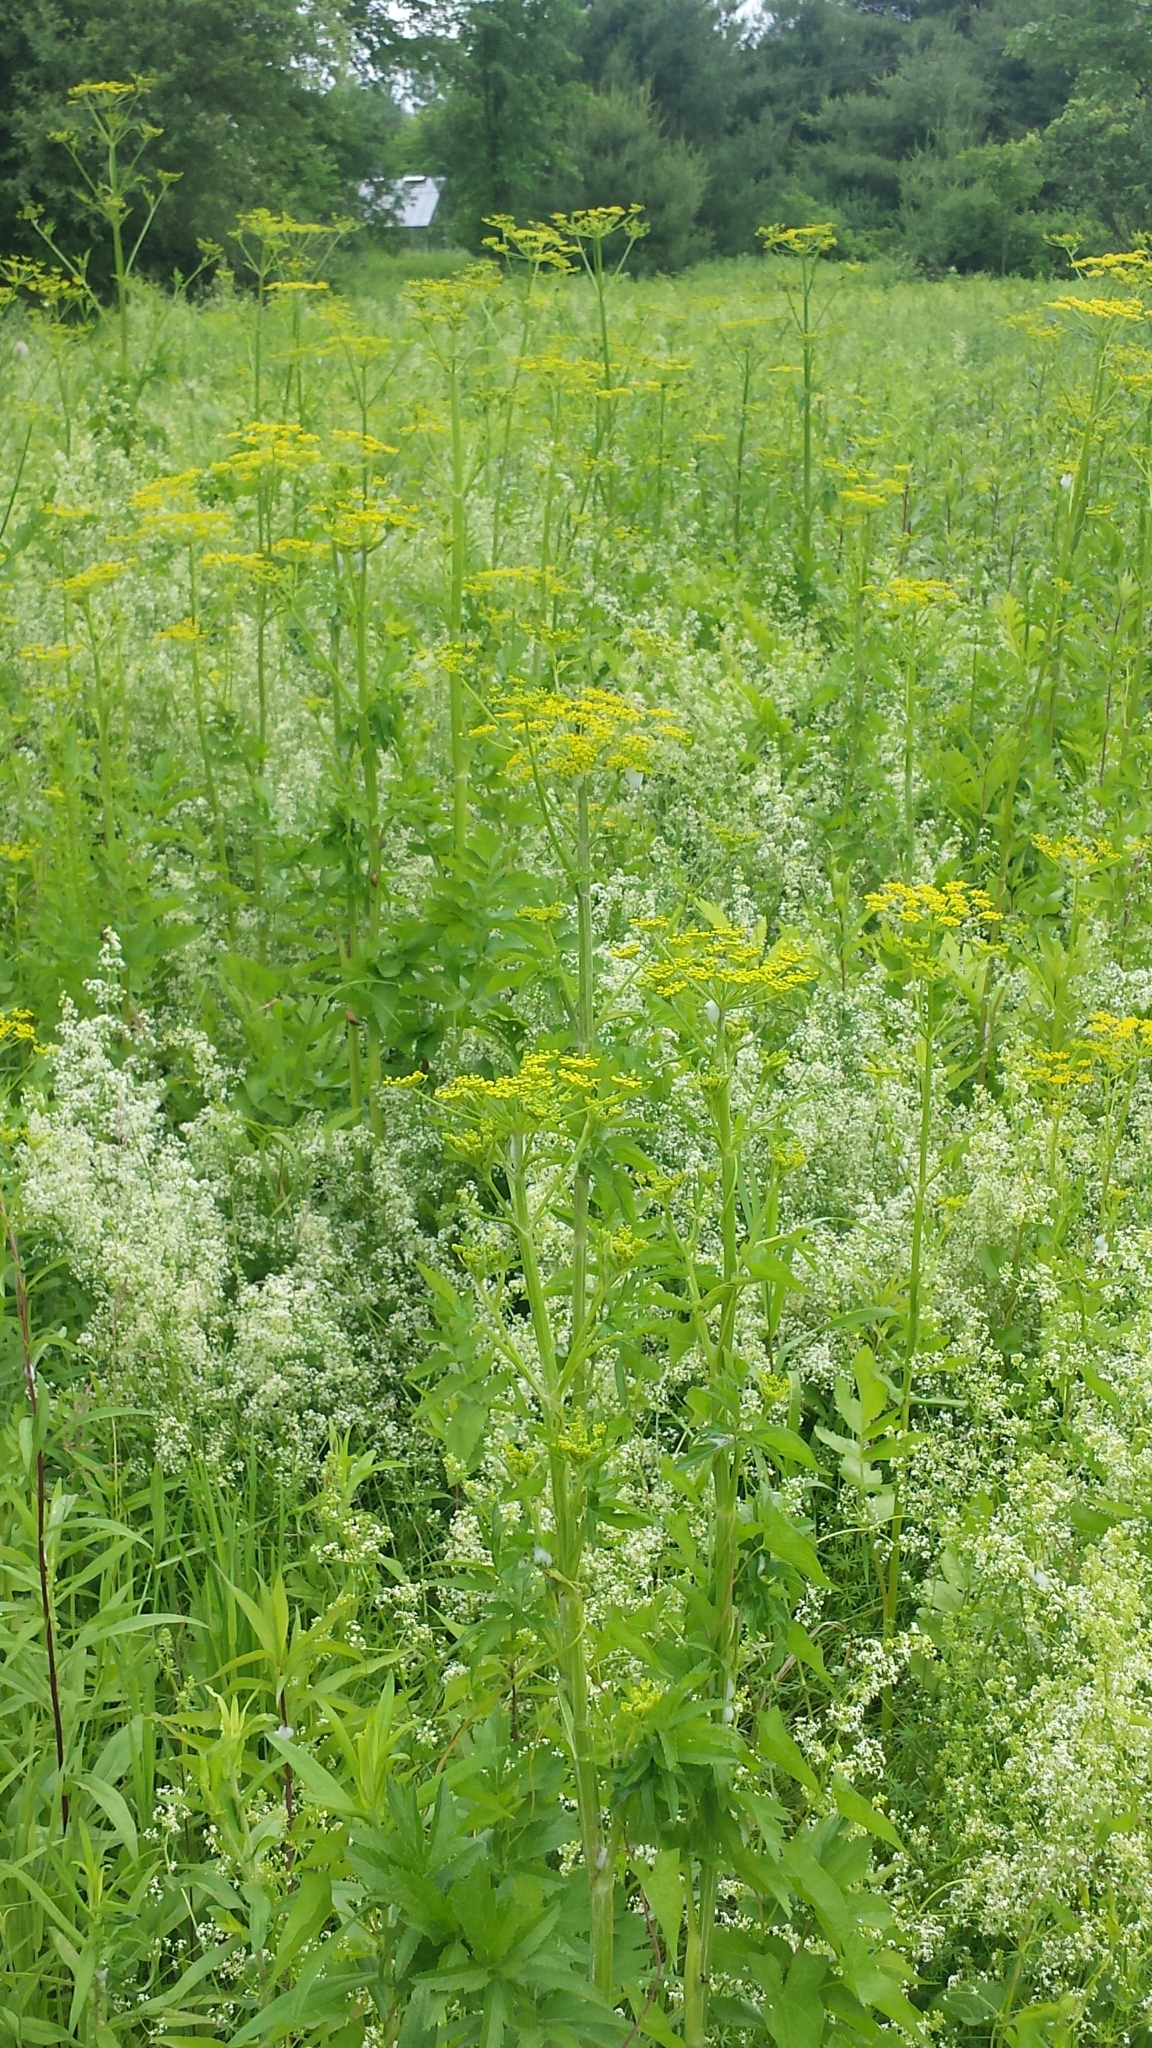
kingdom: Plantae
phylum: Tracheophyta
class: Magnoliopsida
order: Apiales
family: Apiaceae
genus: Pastinaca
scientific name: Pastinaca sativa
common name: Wild parsnip
